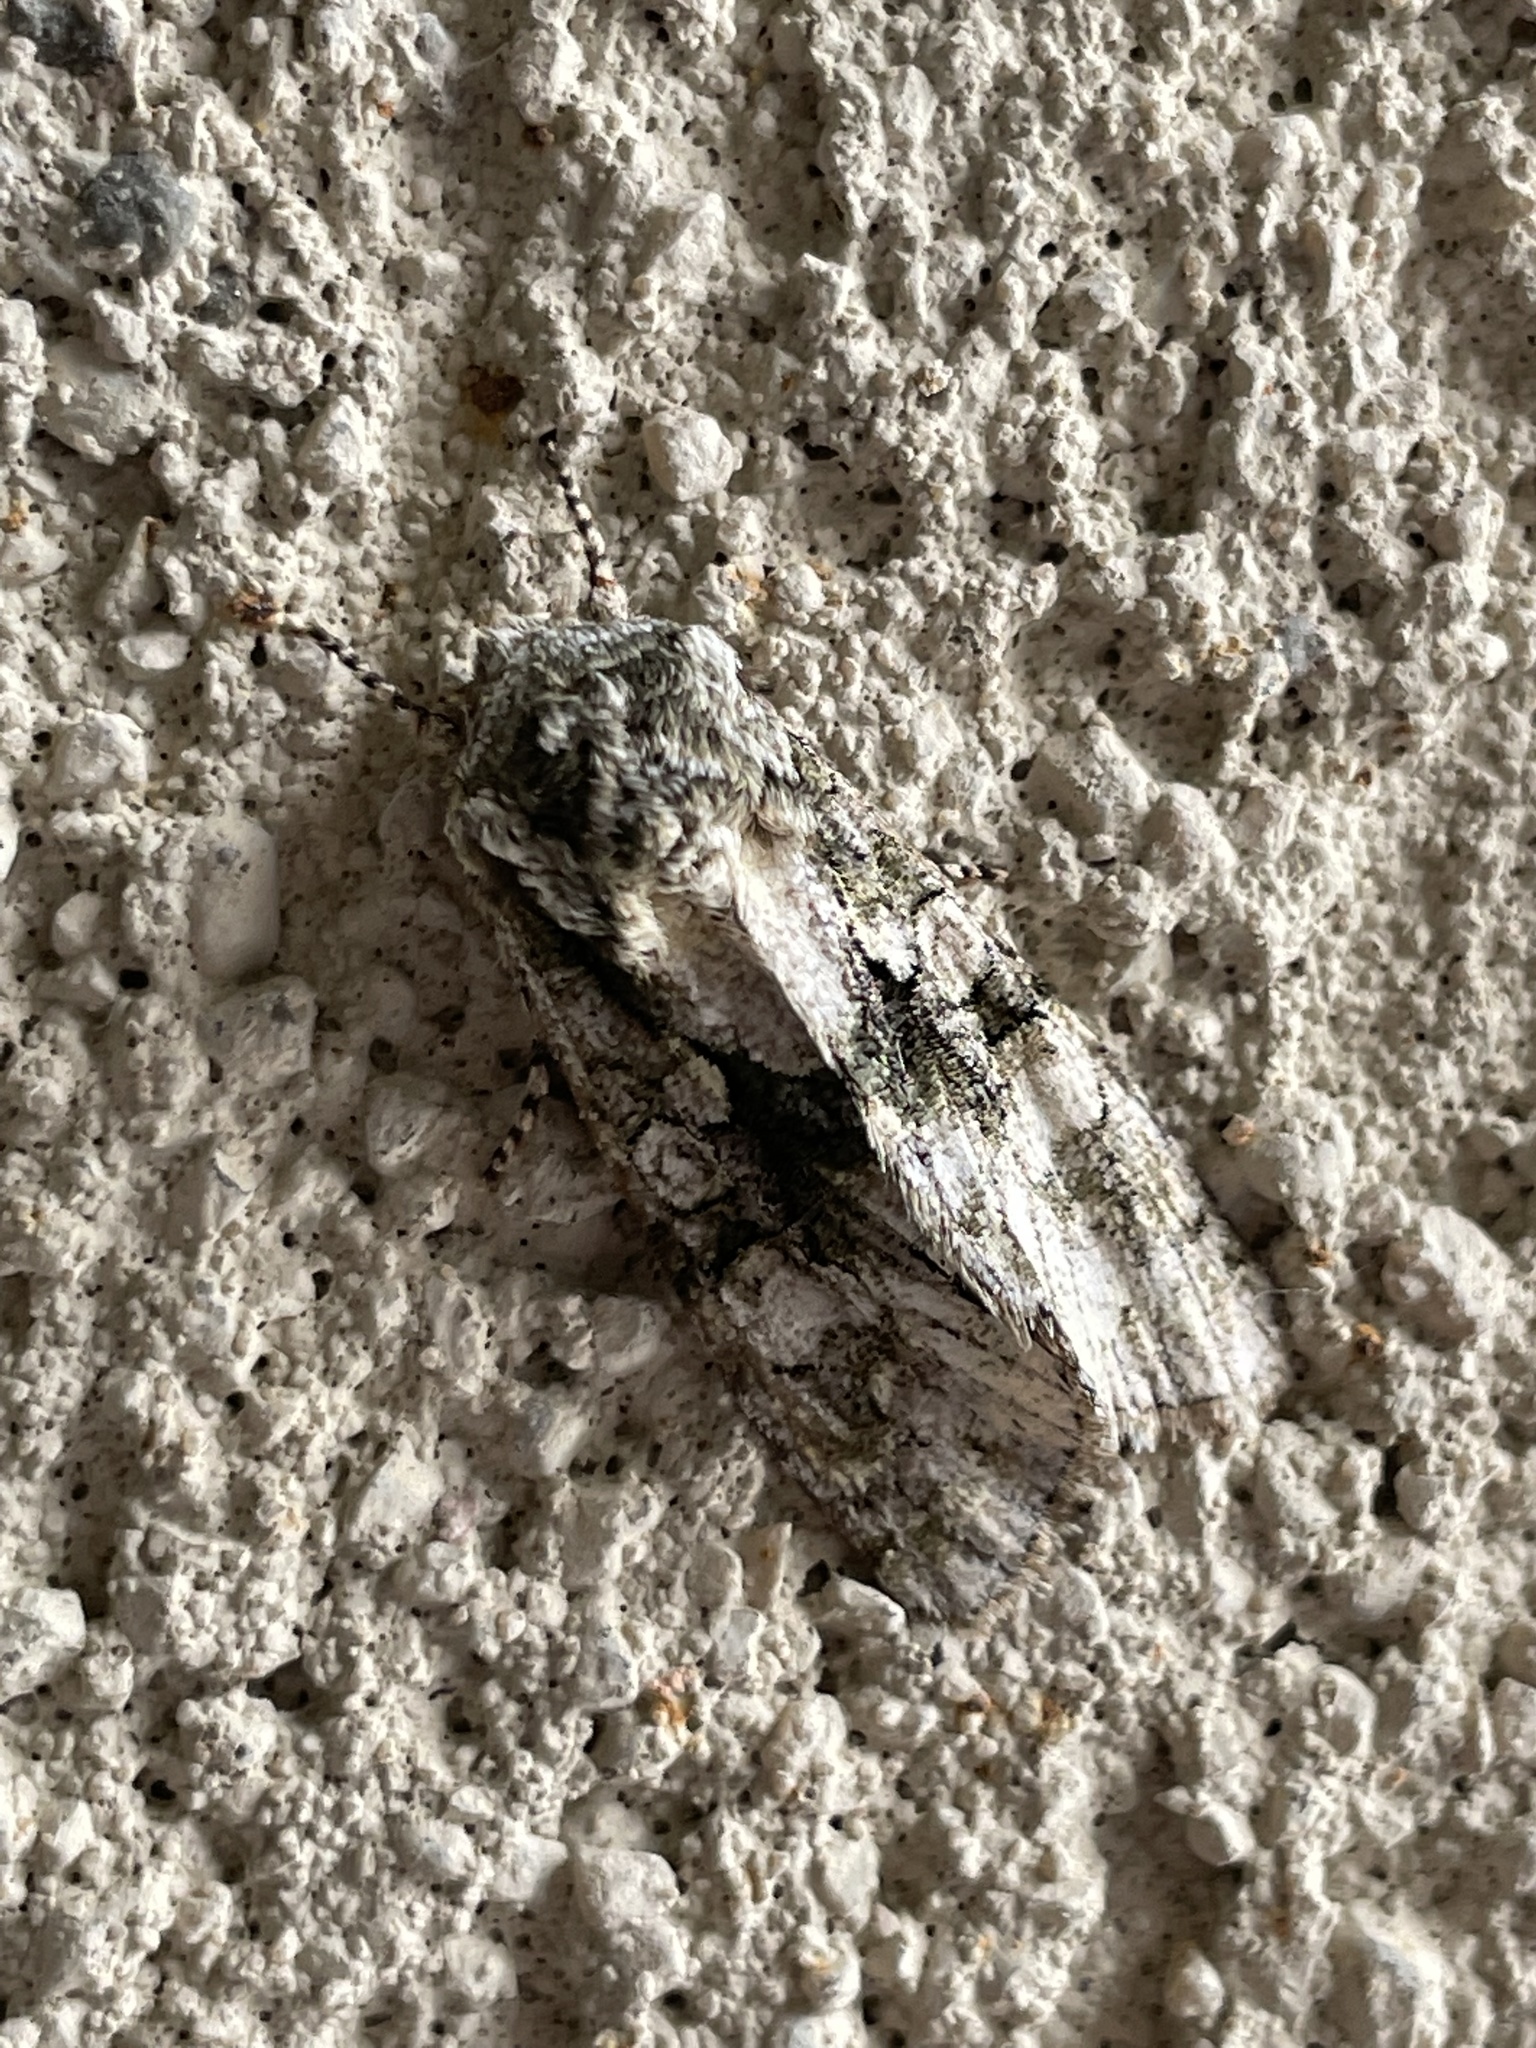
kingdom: Animalia
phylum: Arthropoda
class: Insecta
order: Lepidoptera
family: Noctuidae
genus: Psaphida
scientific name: Psaphida resumens
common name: Figure-eight sallow
